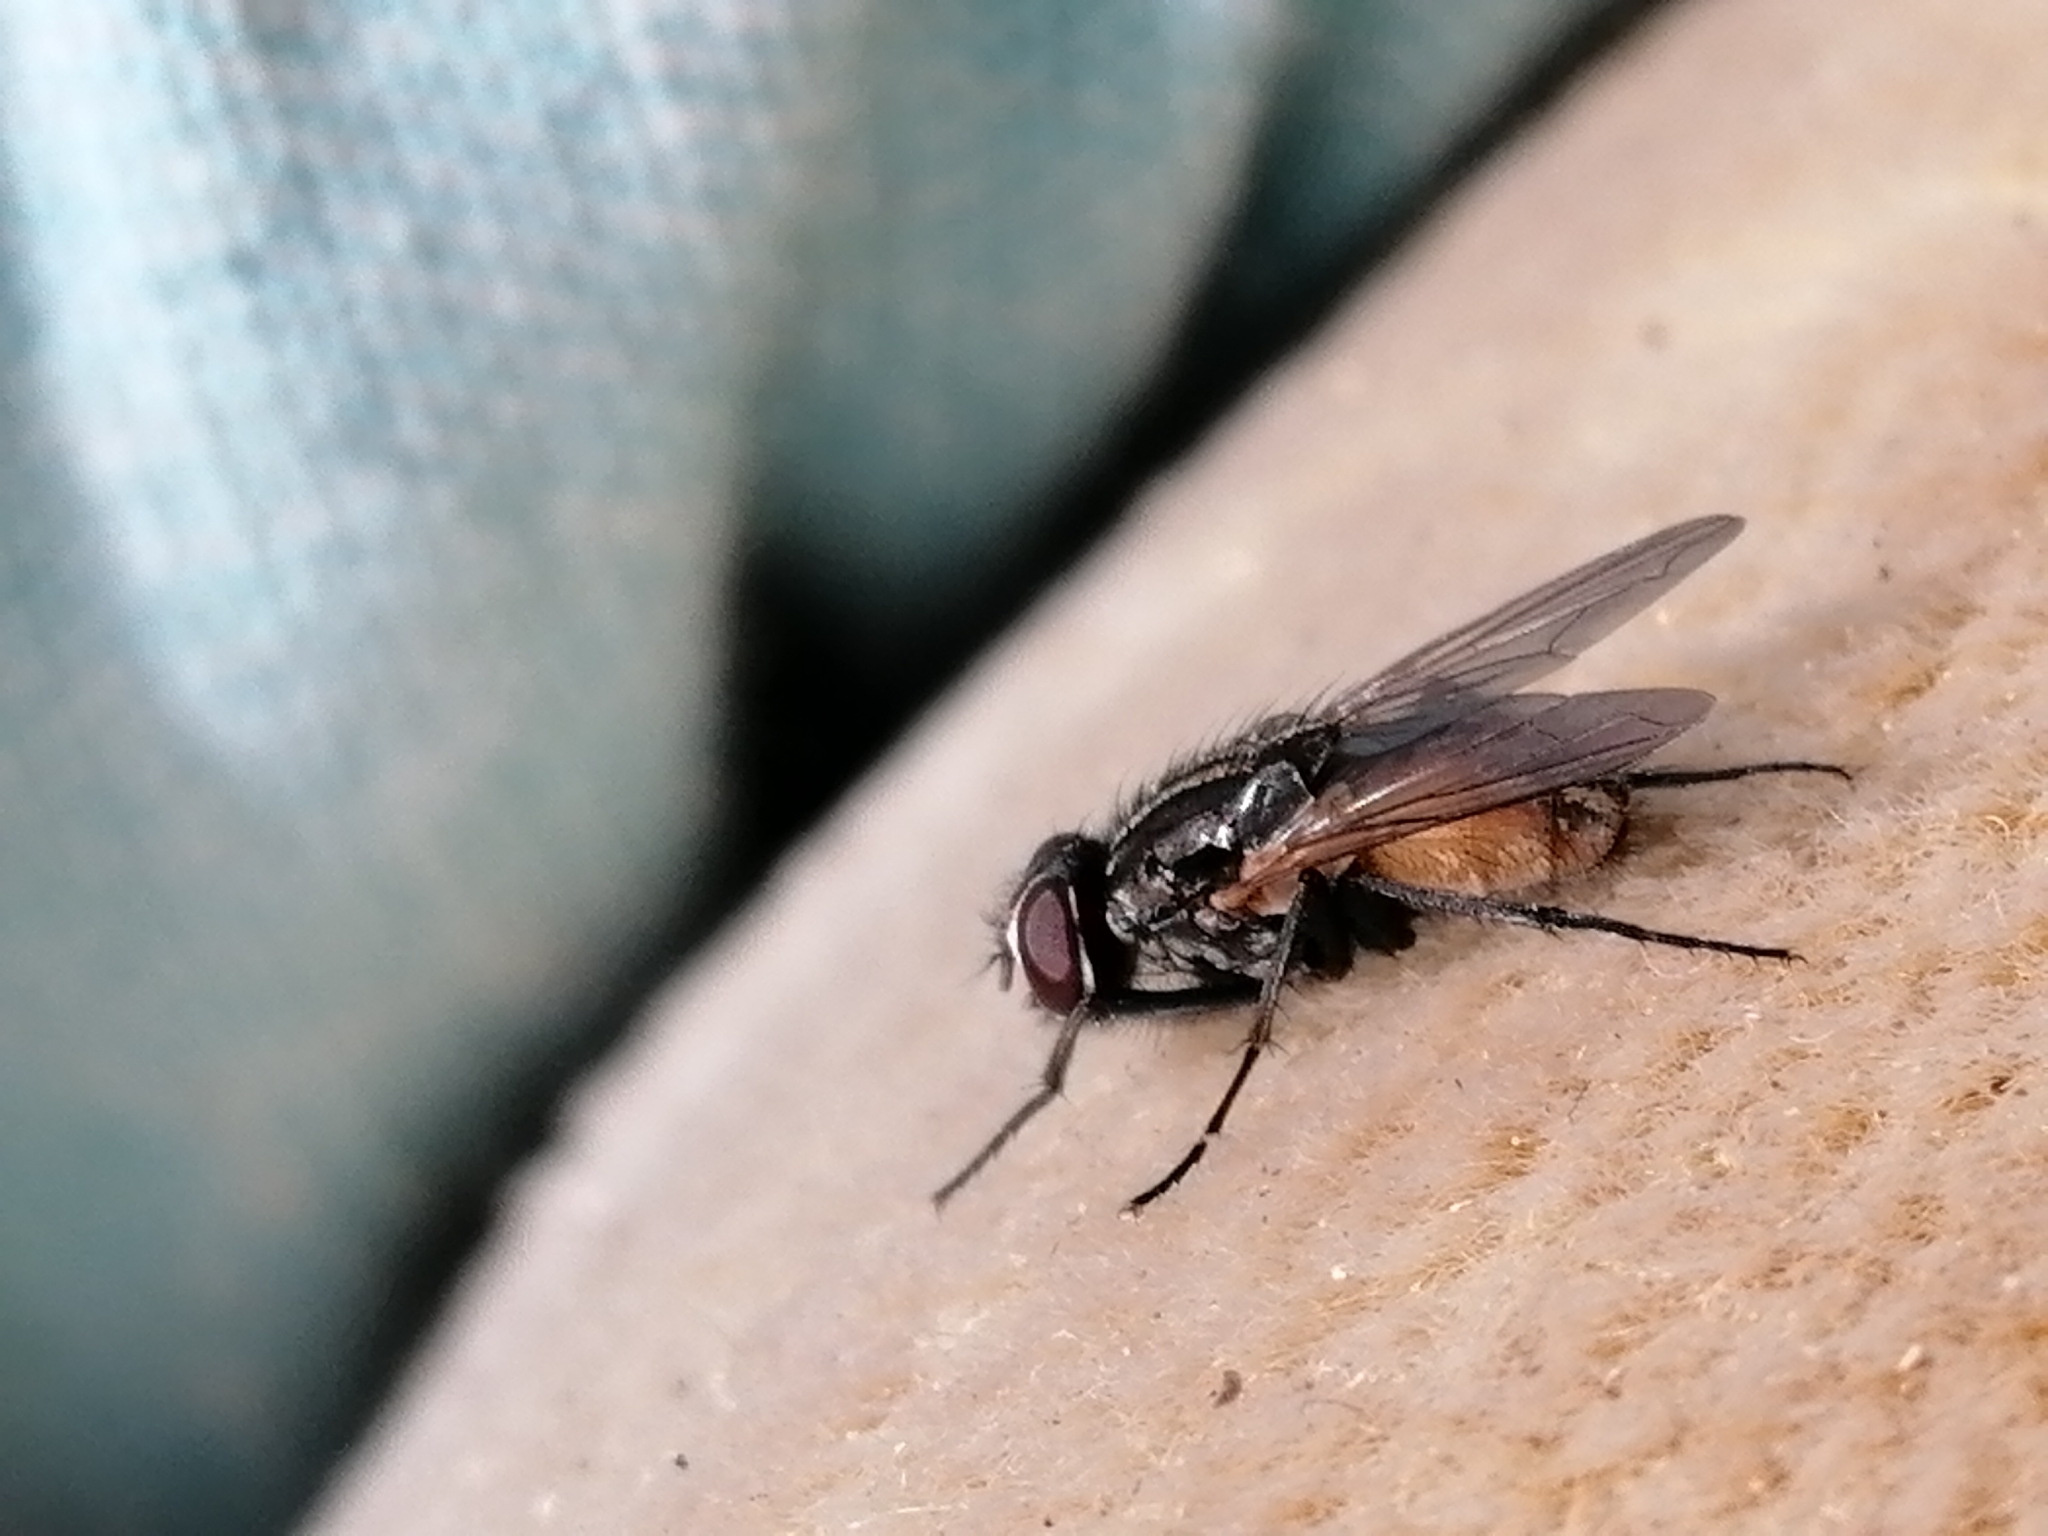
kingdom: Animalia
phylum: Arthropoda
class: Insecta
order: Diptera
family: Muscidae
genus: Musca
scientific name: Musca domestica
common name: House fly
